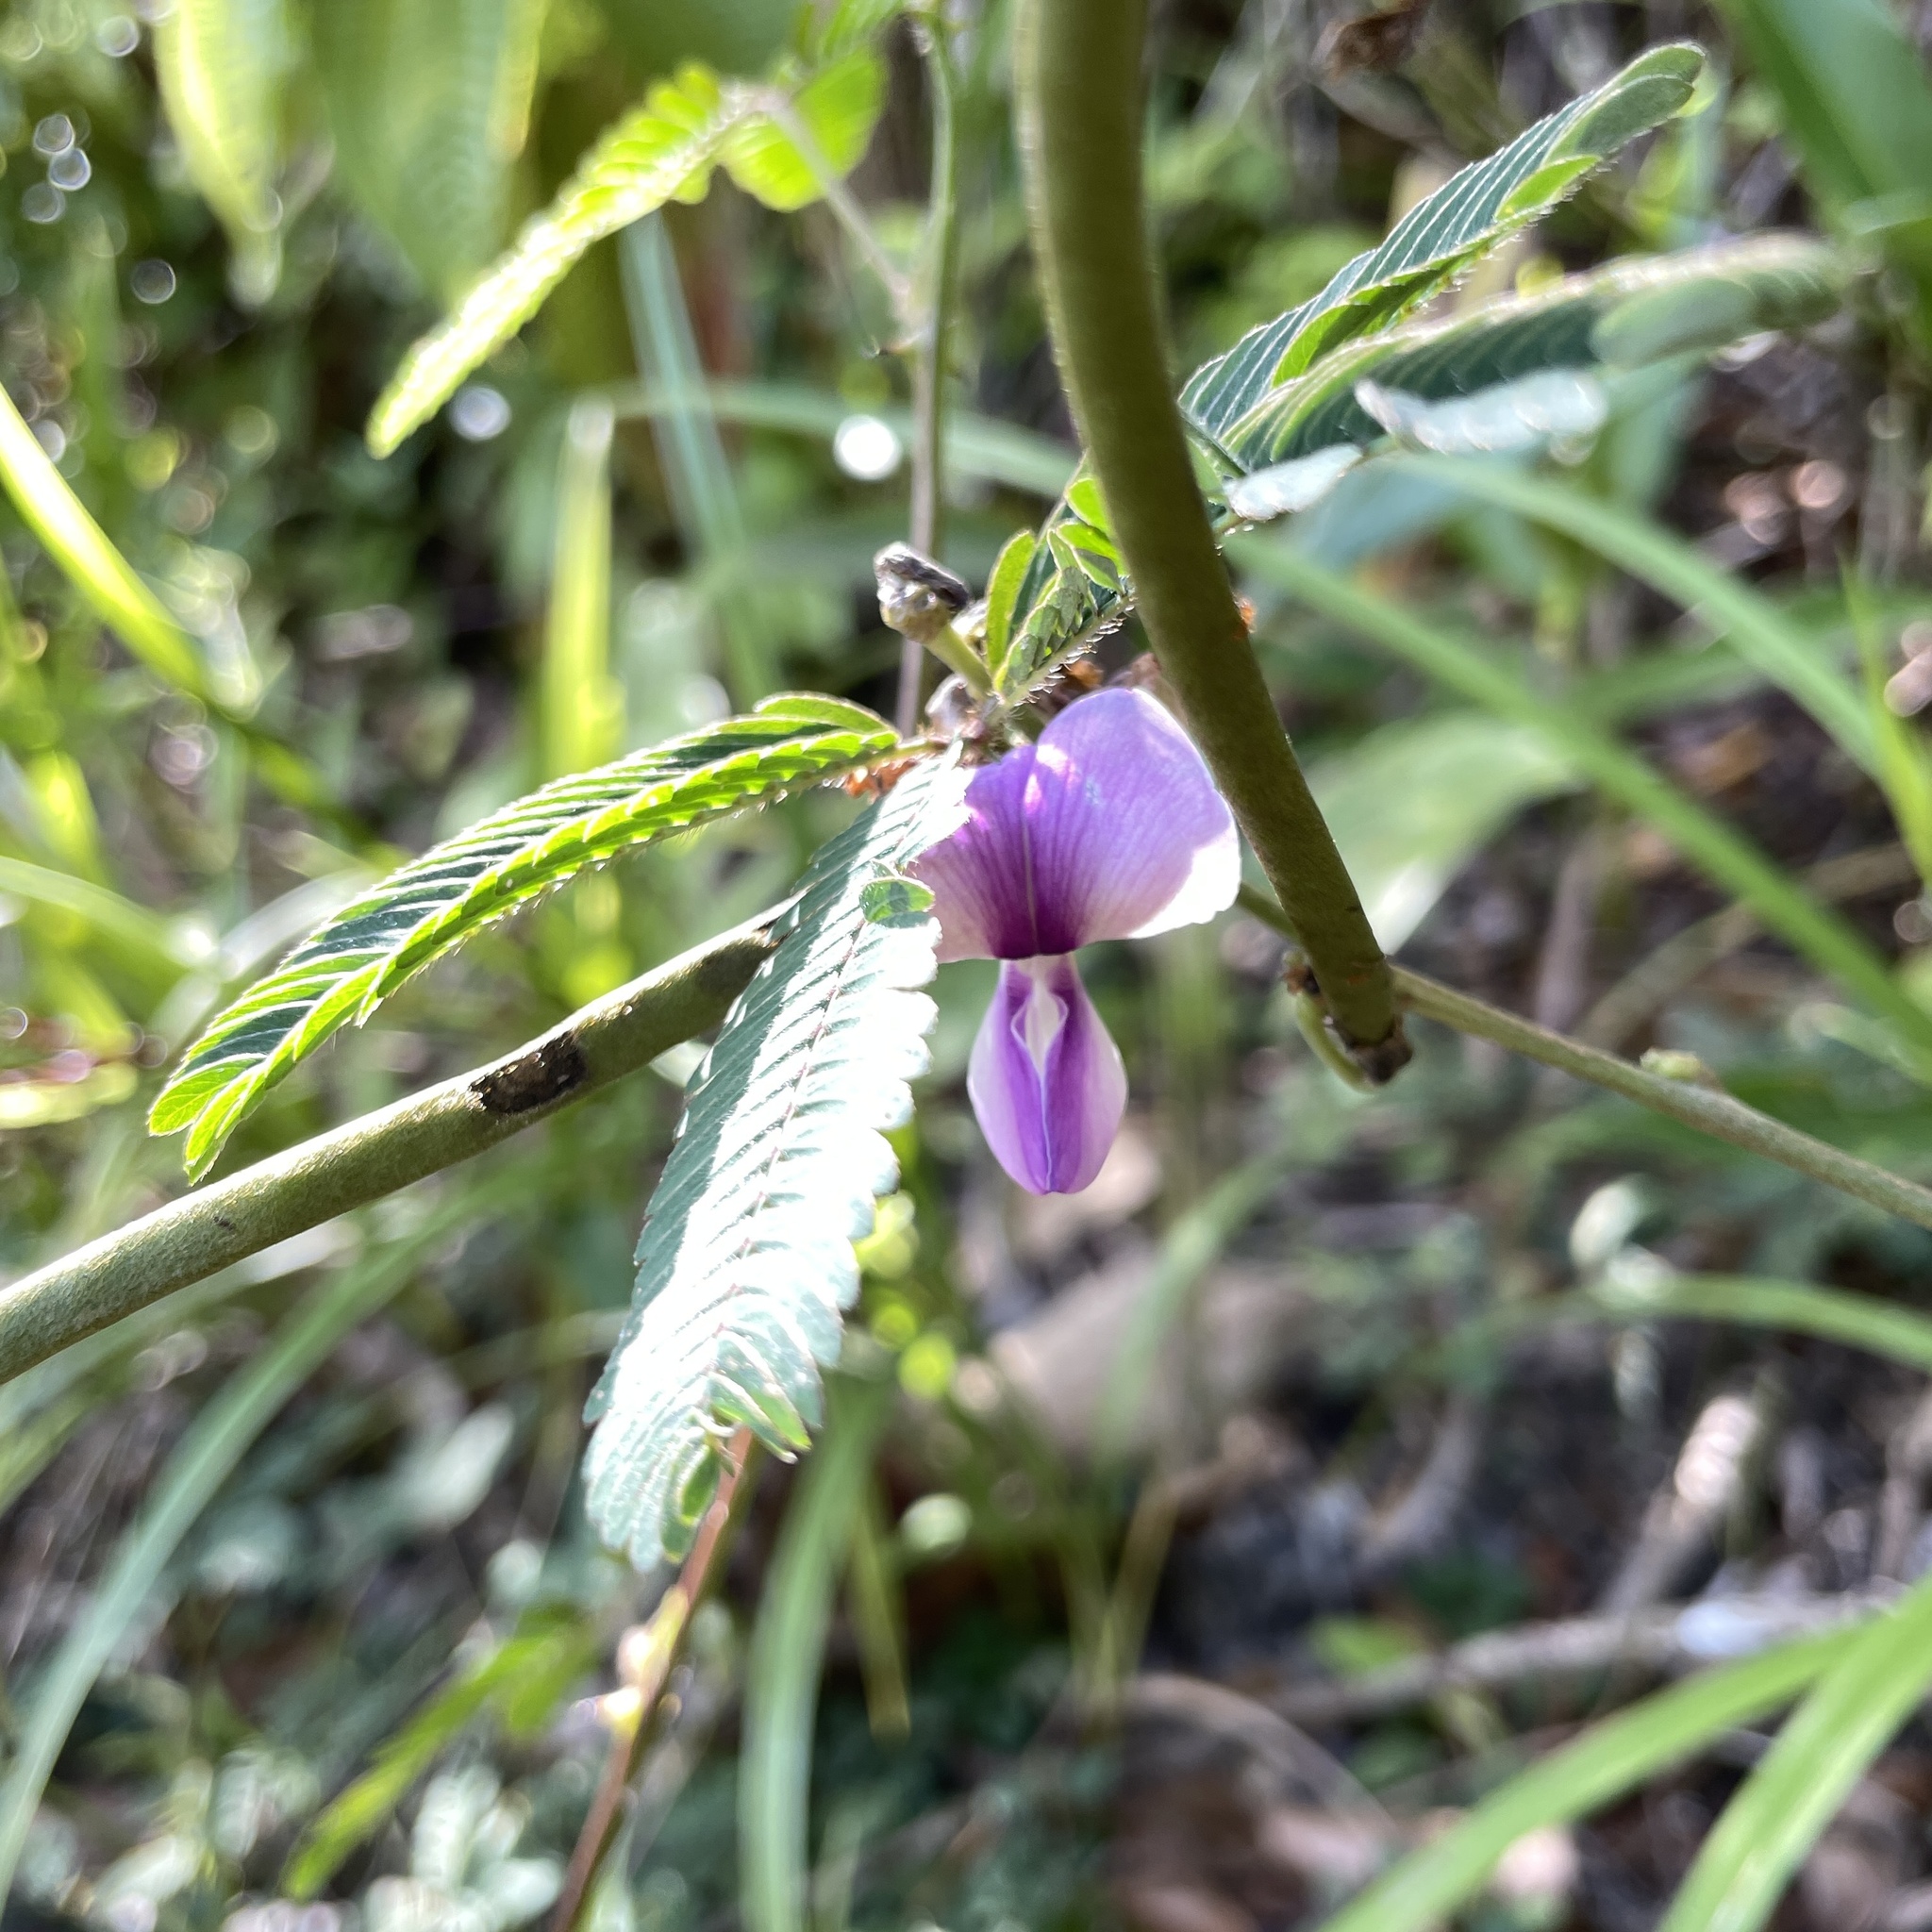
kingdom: Plantae
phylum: Tracheophyta
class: Magnoliopsida
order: Fabales
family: Fabaceae
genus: Neustanthus
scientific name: Neustanthus phaseoloides
